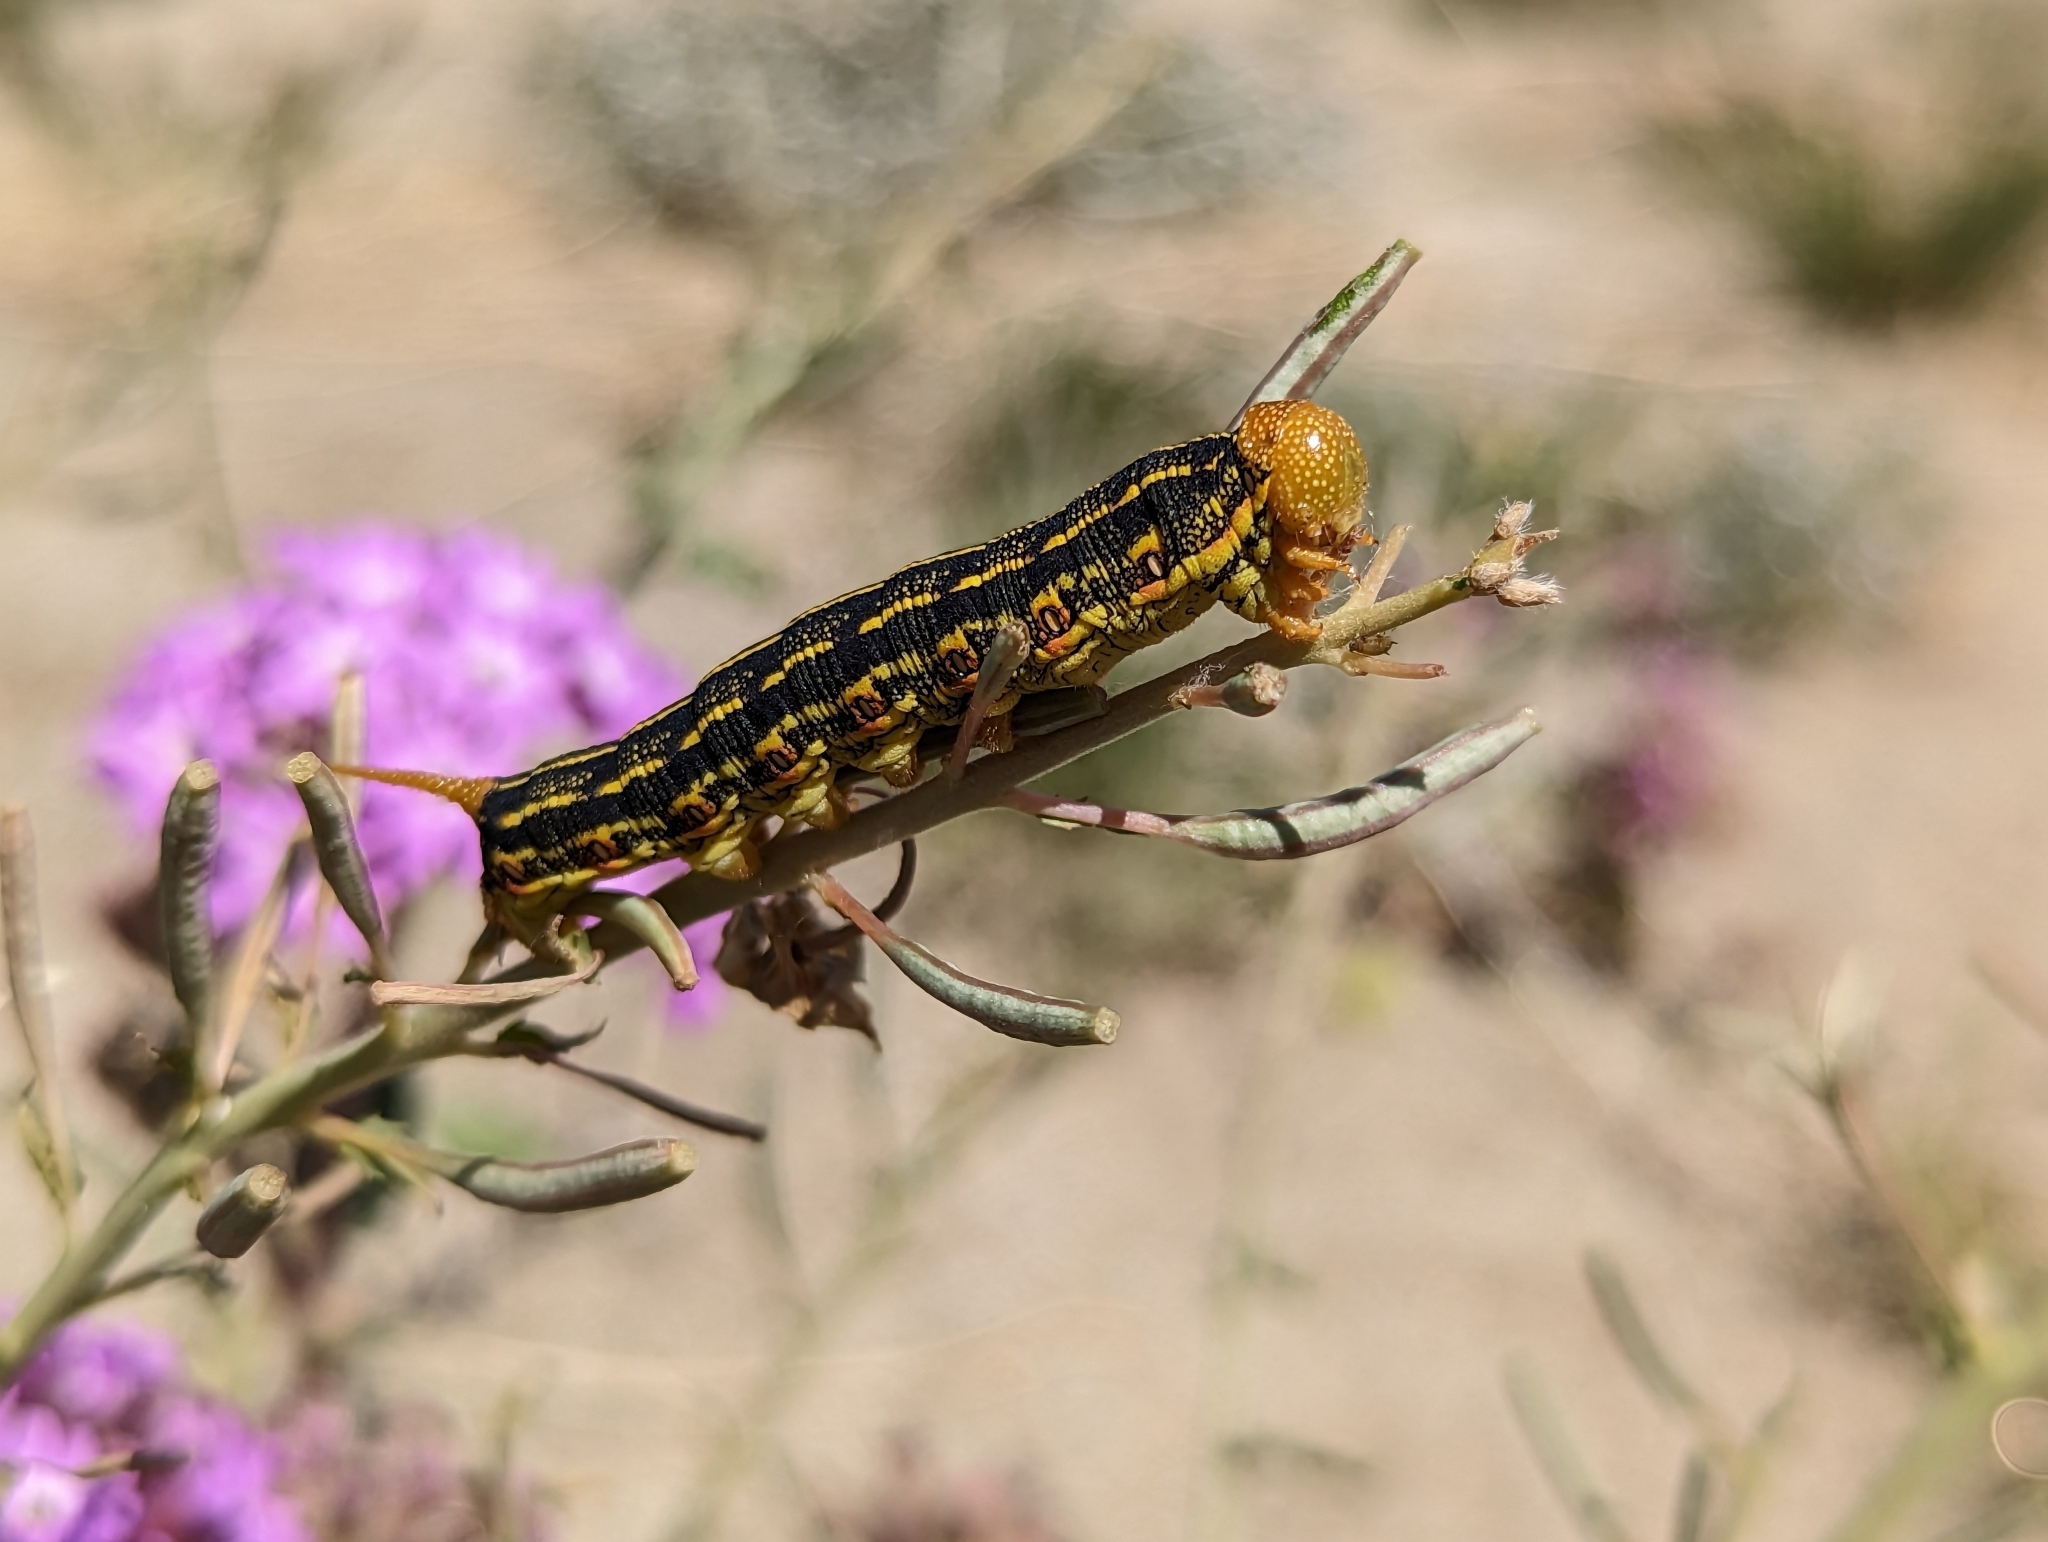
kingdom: Animalia
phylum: Arthropoda
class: Insecta
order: Lepidoptera
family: Sphingidae
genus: Hyles
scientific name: Hyles lineata
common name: White-lined sphinx
